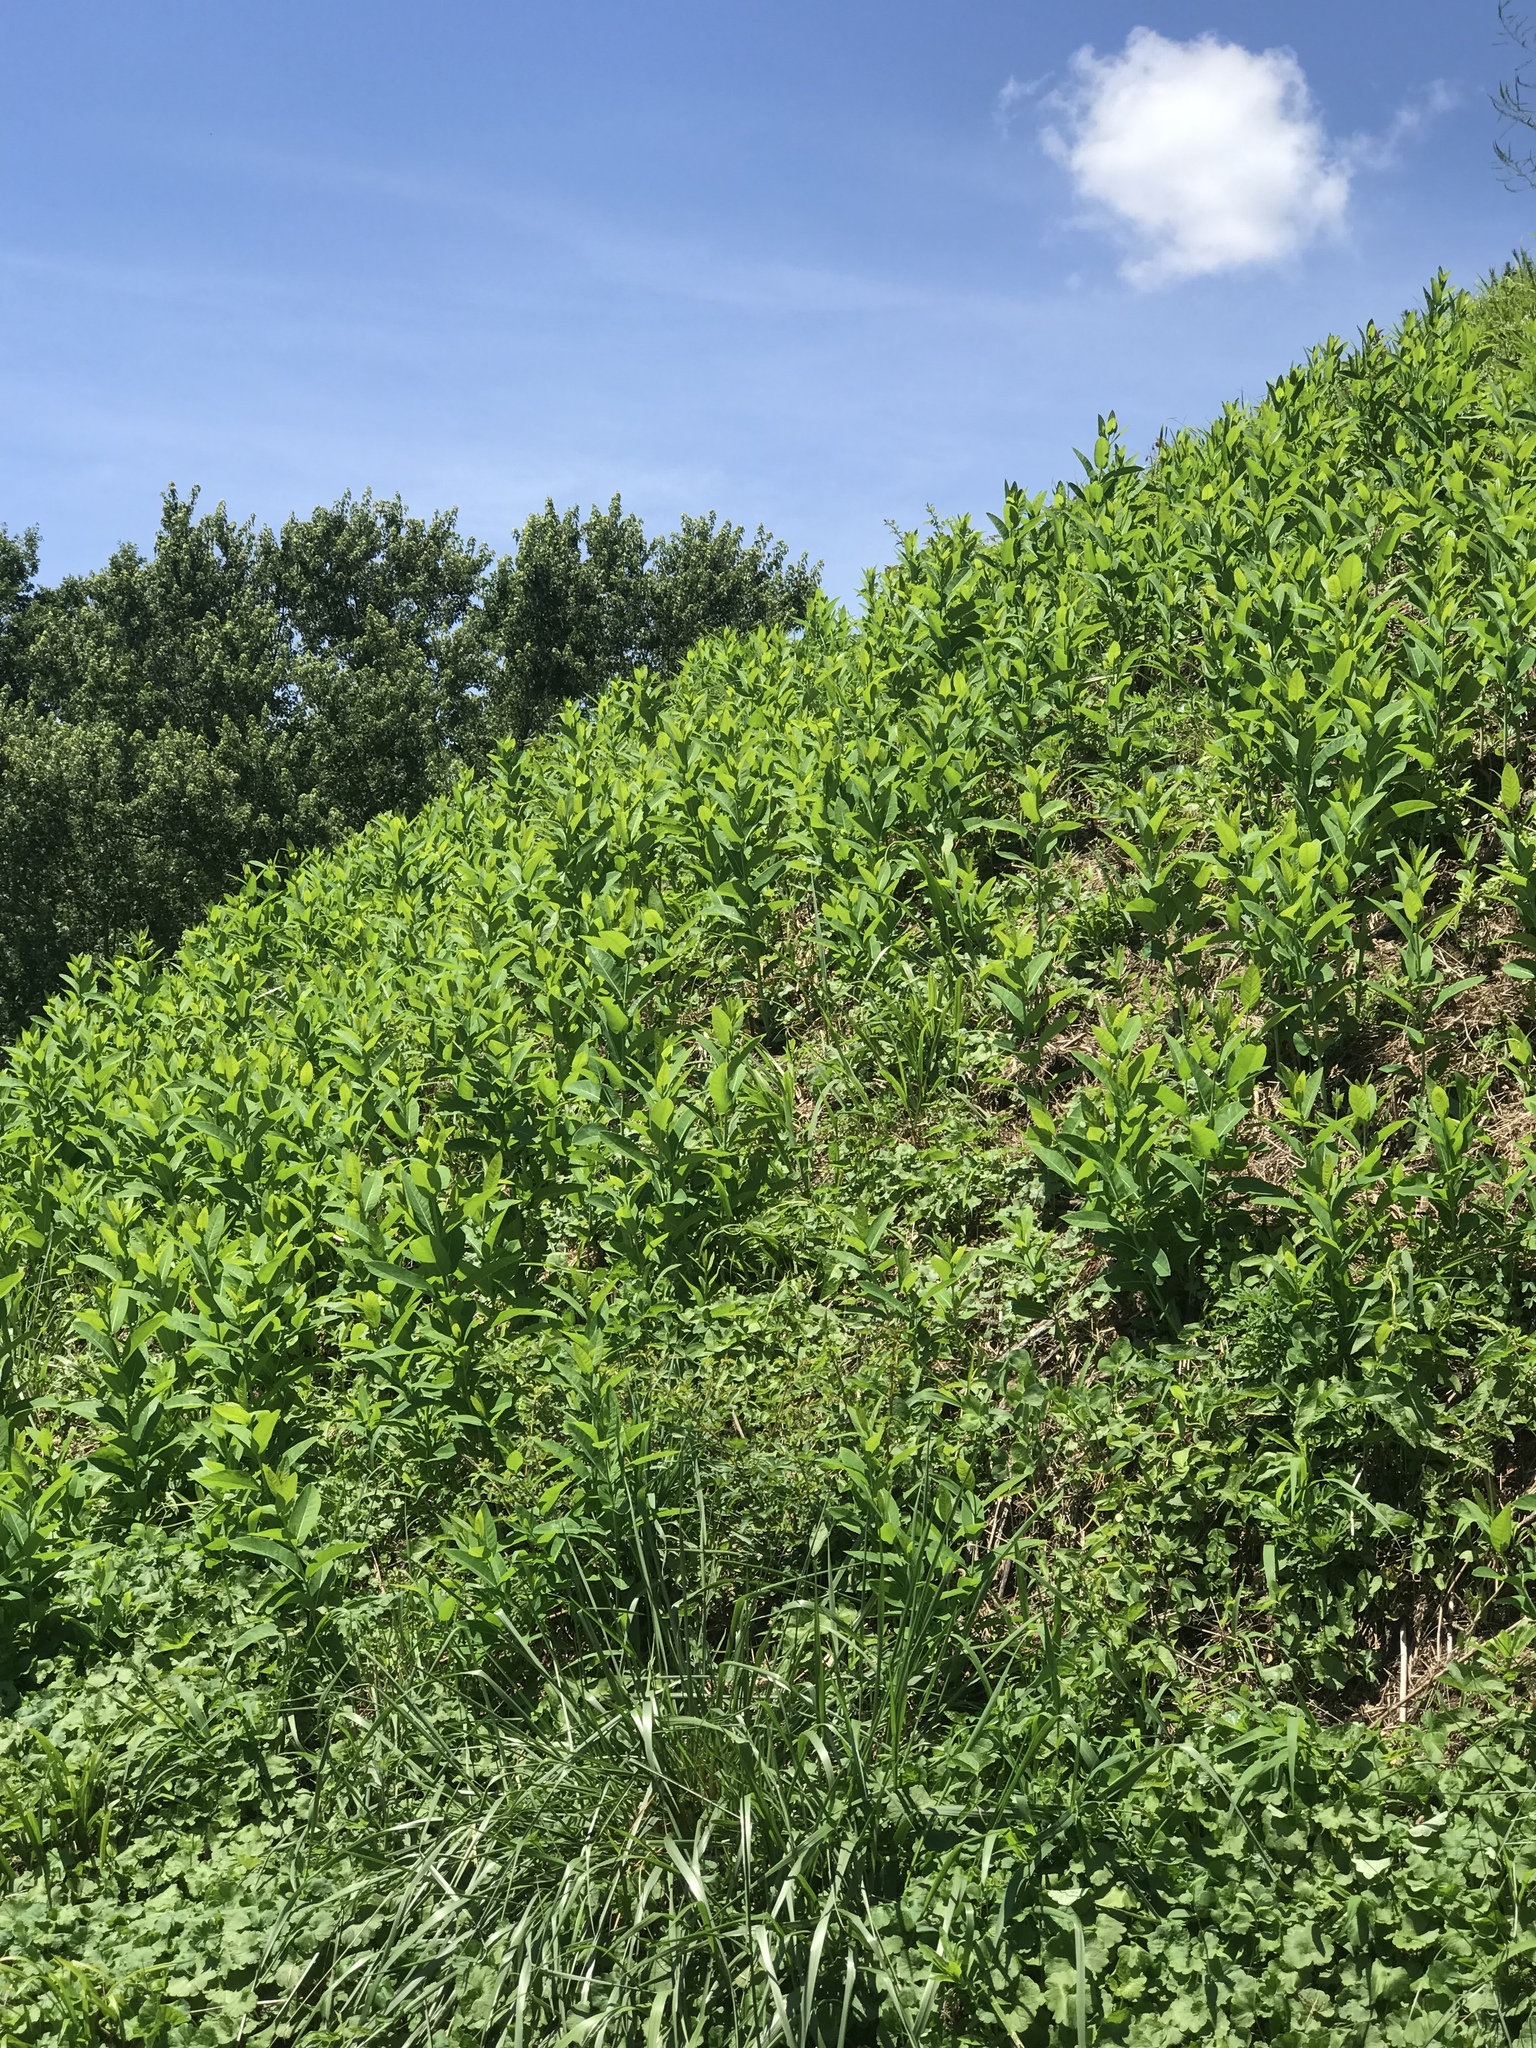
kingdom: Plantae
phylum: Tracheophyta
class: Magnoliopsida
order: Gentianales
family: Apocynaceae
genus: Apocynum
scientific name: Apocynum cannabinum
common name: Hemp dogbane
